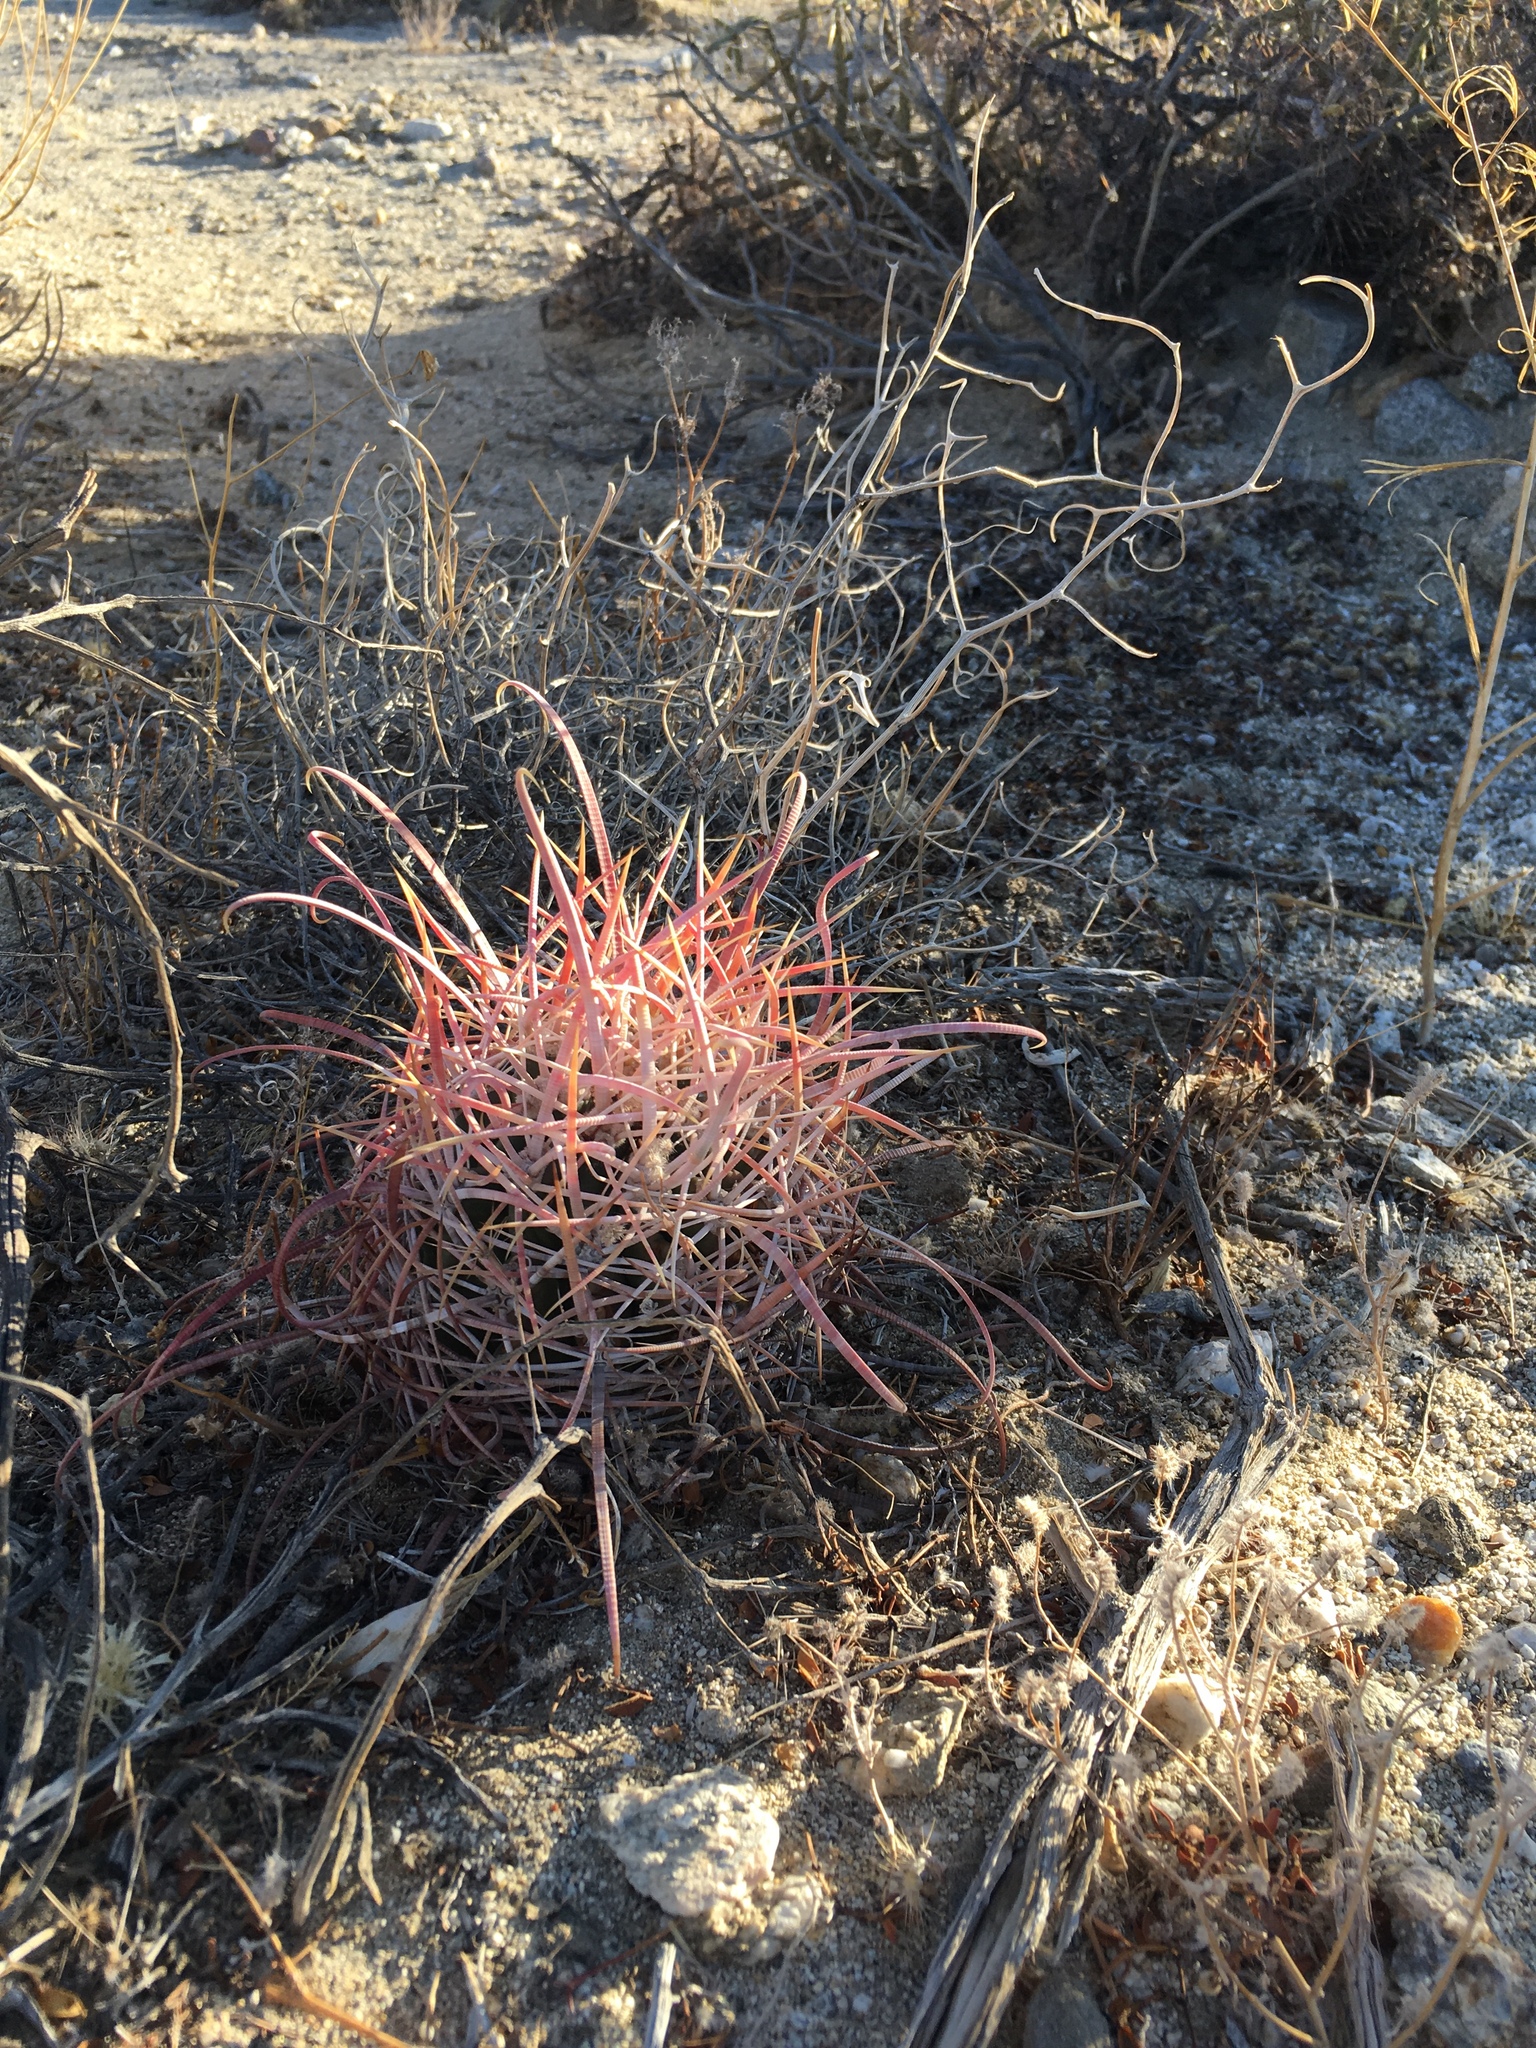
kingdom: Plantae
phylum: Tracheophyta
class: Magnoliopsida
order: Caryophyllales
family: Cactaceae
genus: Ferocactus
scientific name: Ferocactus cylindraceus
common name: California barrel cactus
